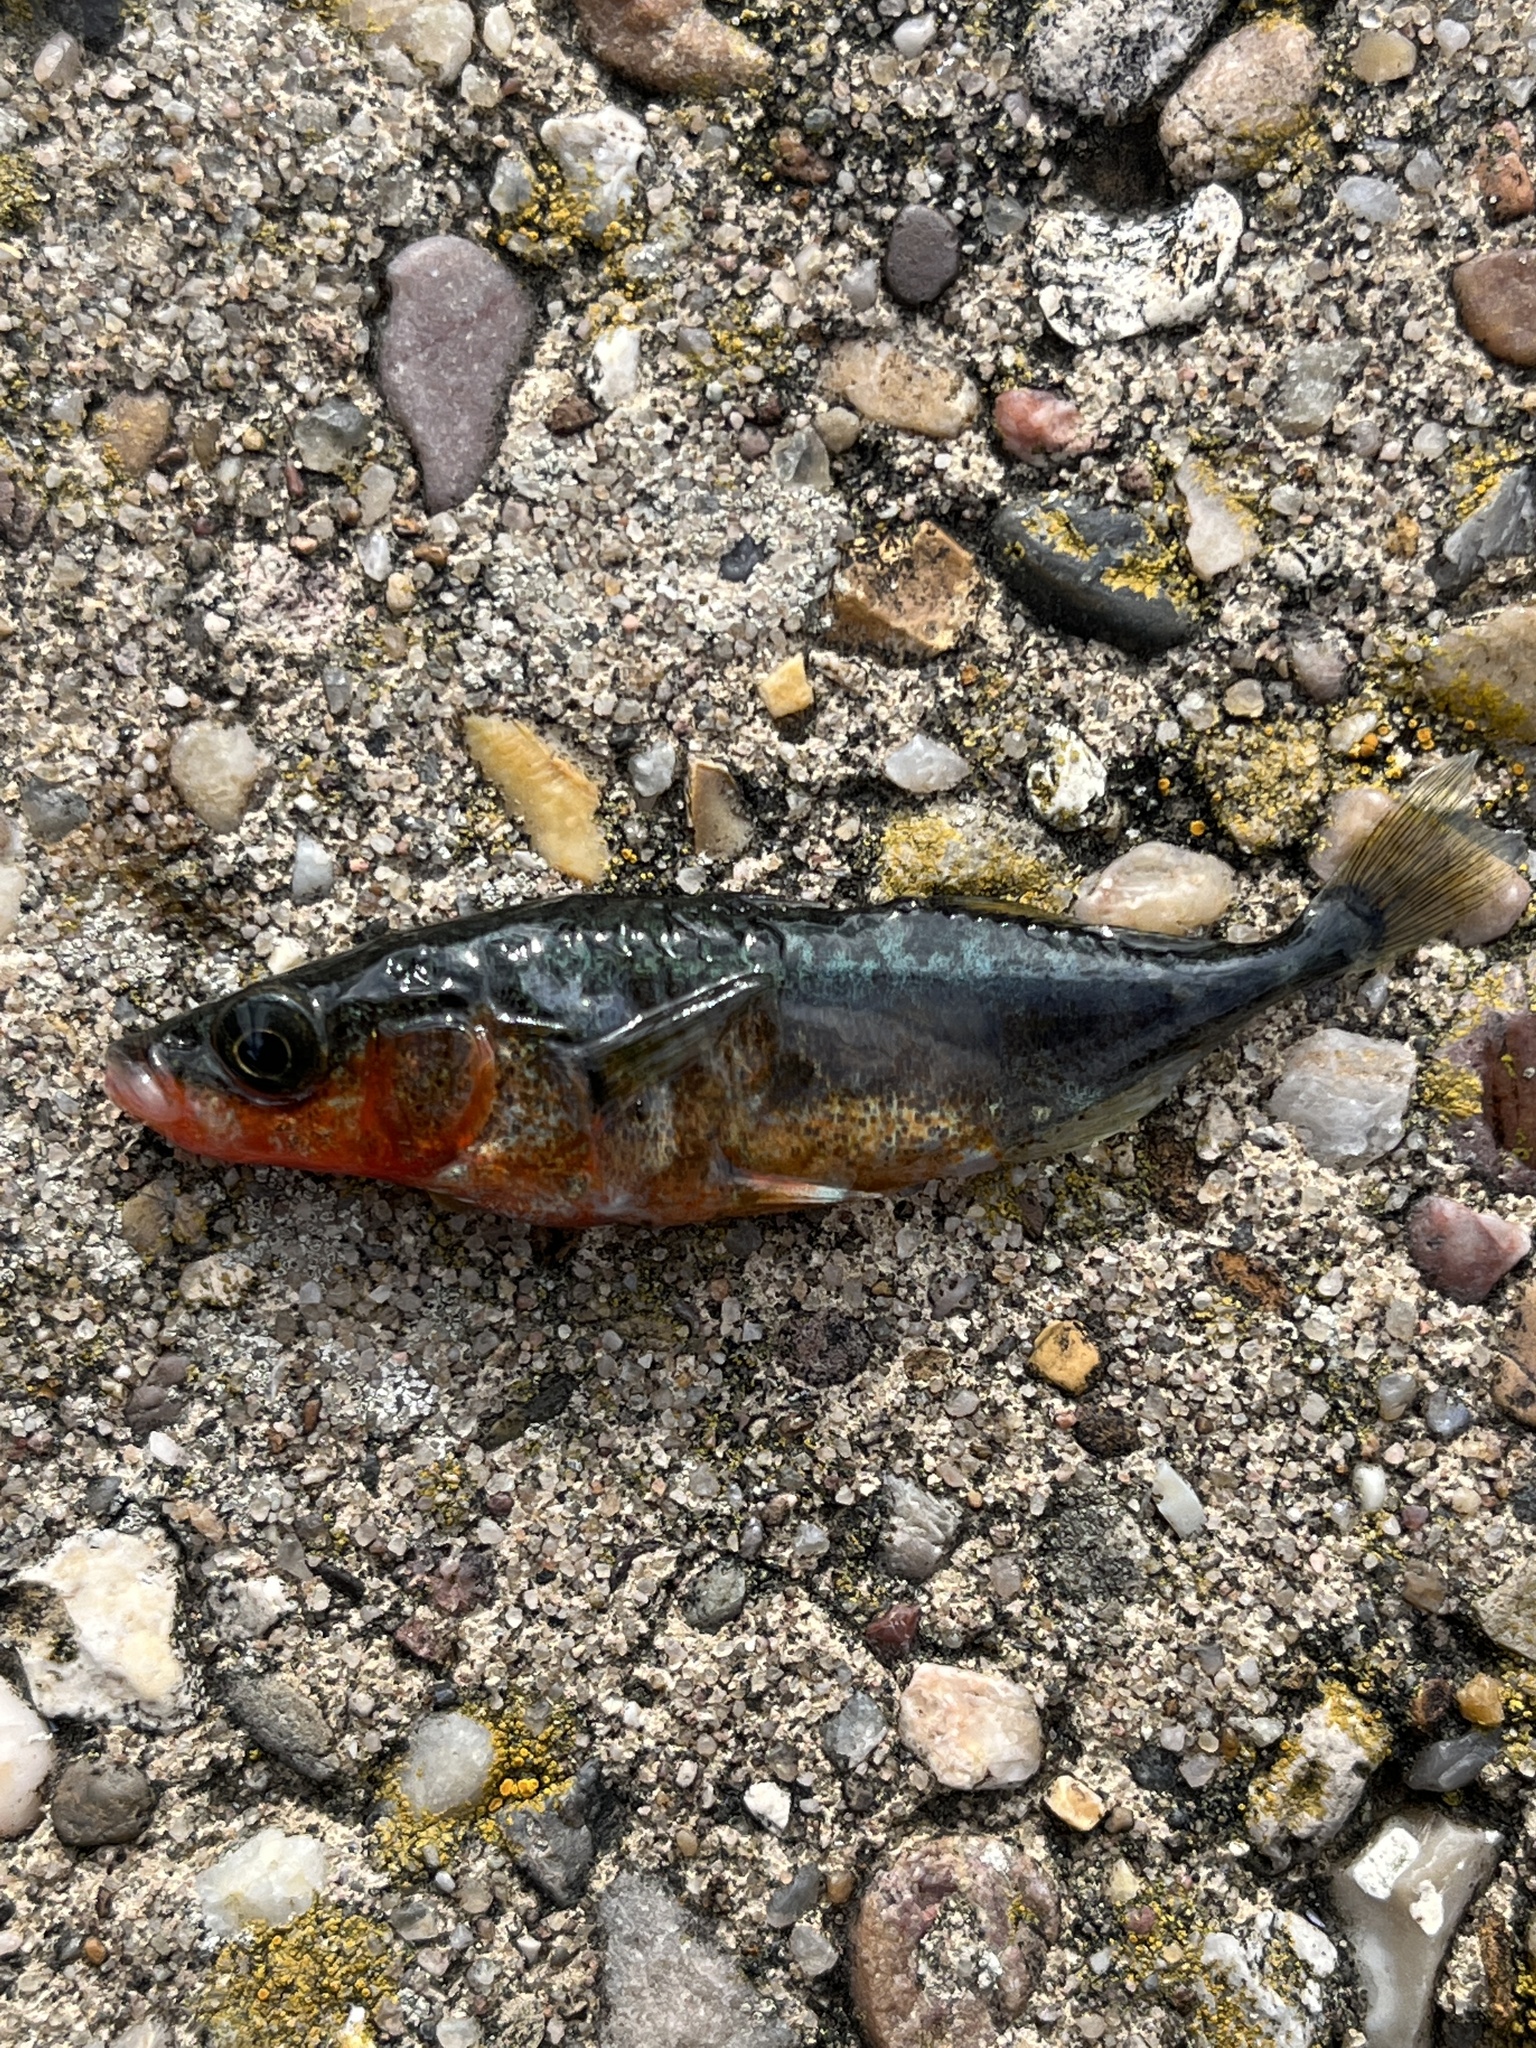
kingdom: Animalia
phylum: Chordata
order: Gasterosteiformes
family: Gasterosteidae
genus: Gasterosteus
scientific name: Gasterosteus aculeatus
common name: Three-spined stickleback
